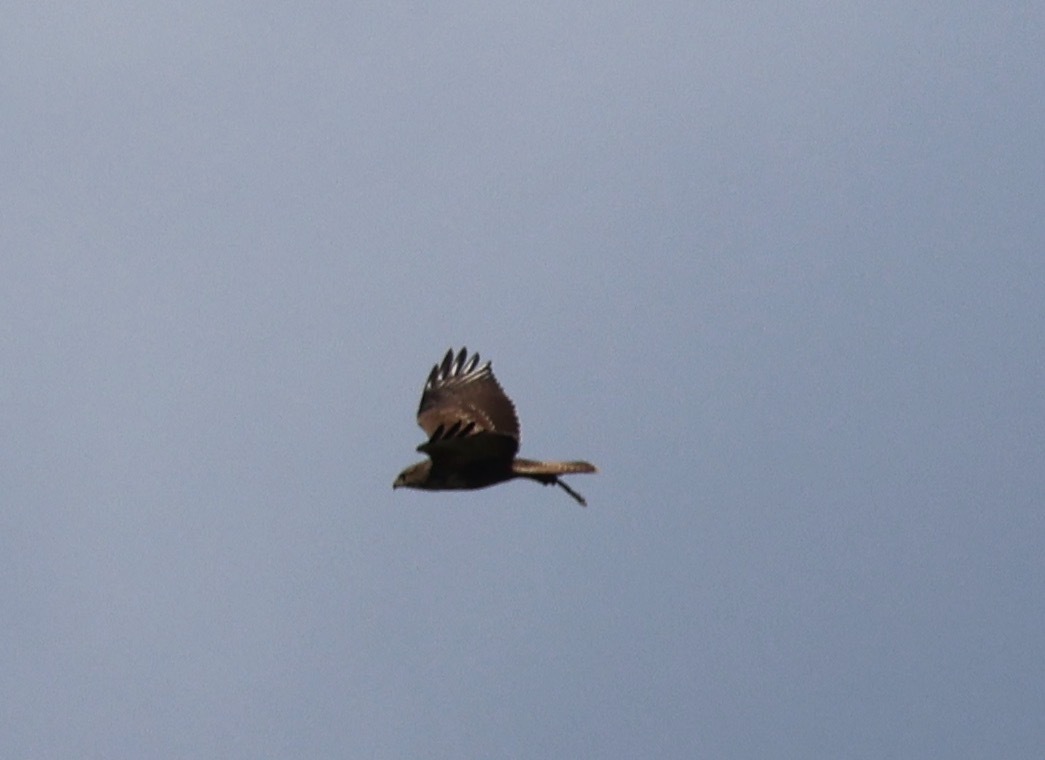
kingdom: Animalia
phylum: Chordata
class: Aves
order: Accipitriformes
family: Accipitridae
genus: Buteo
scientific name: Buteo buteo
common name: Common buzzard
